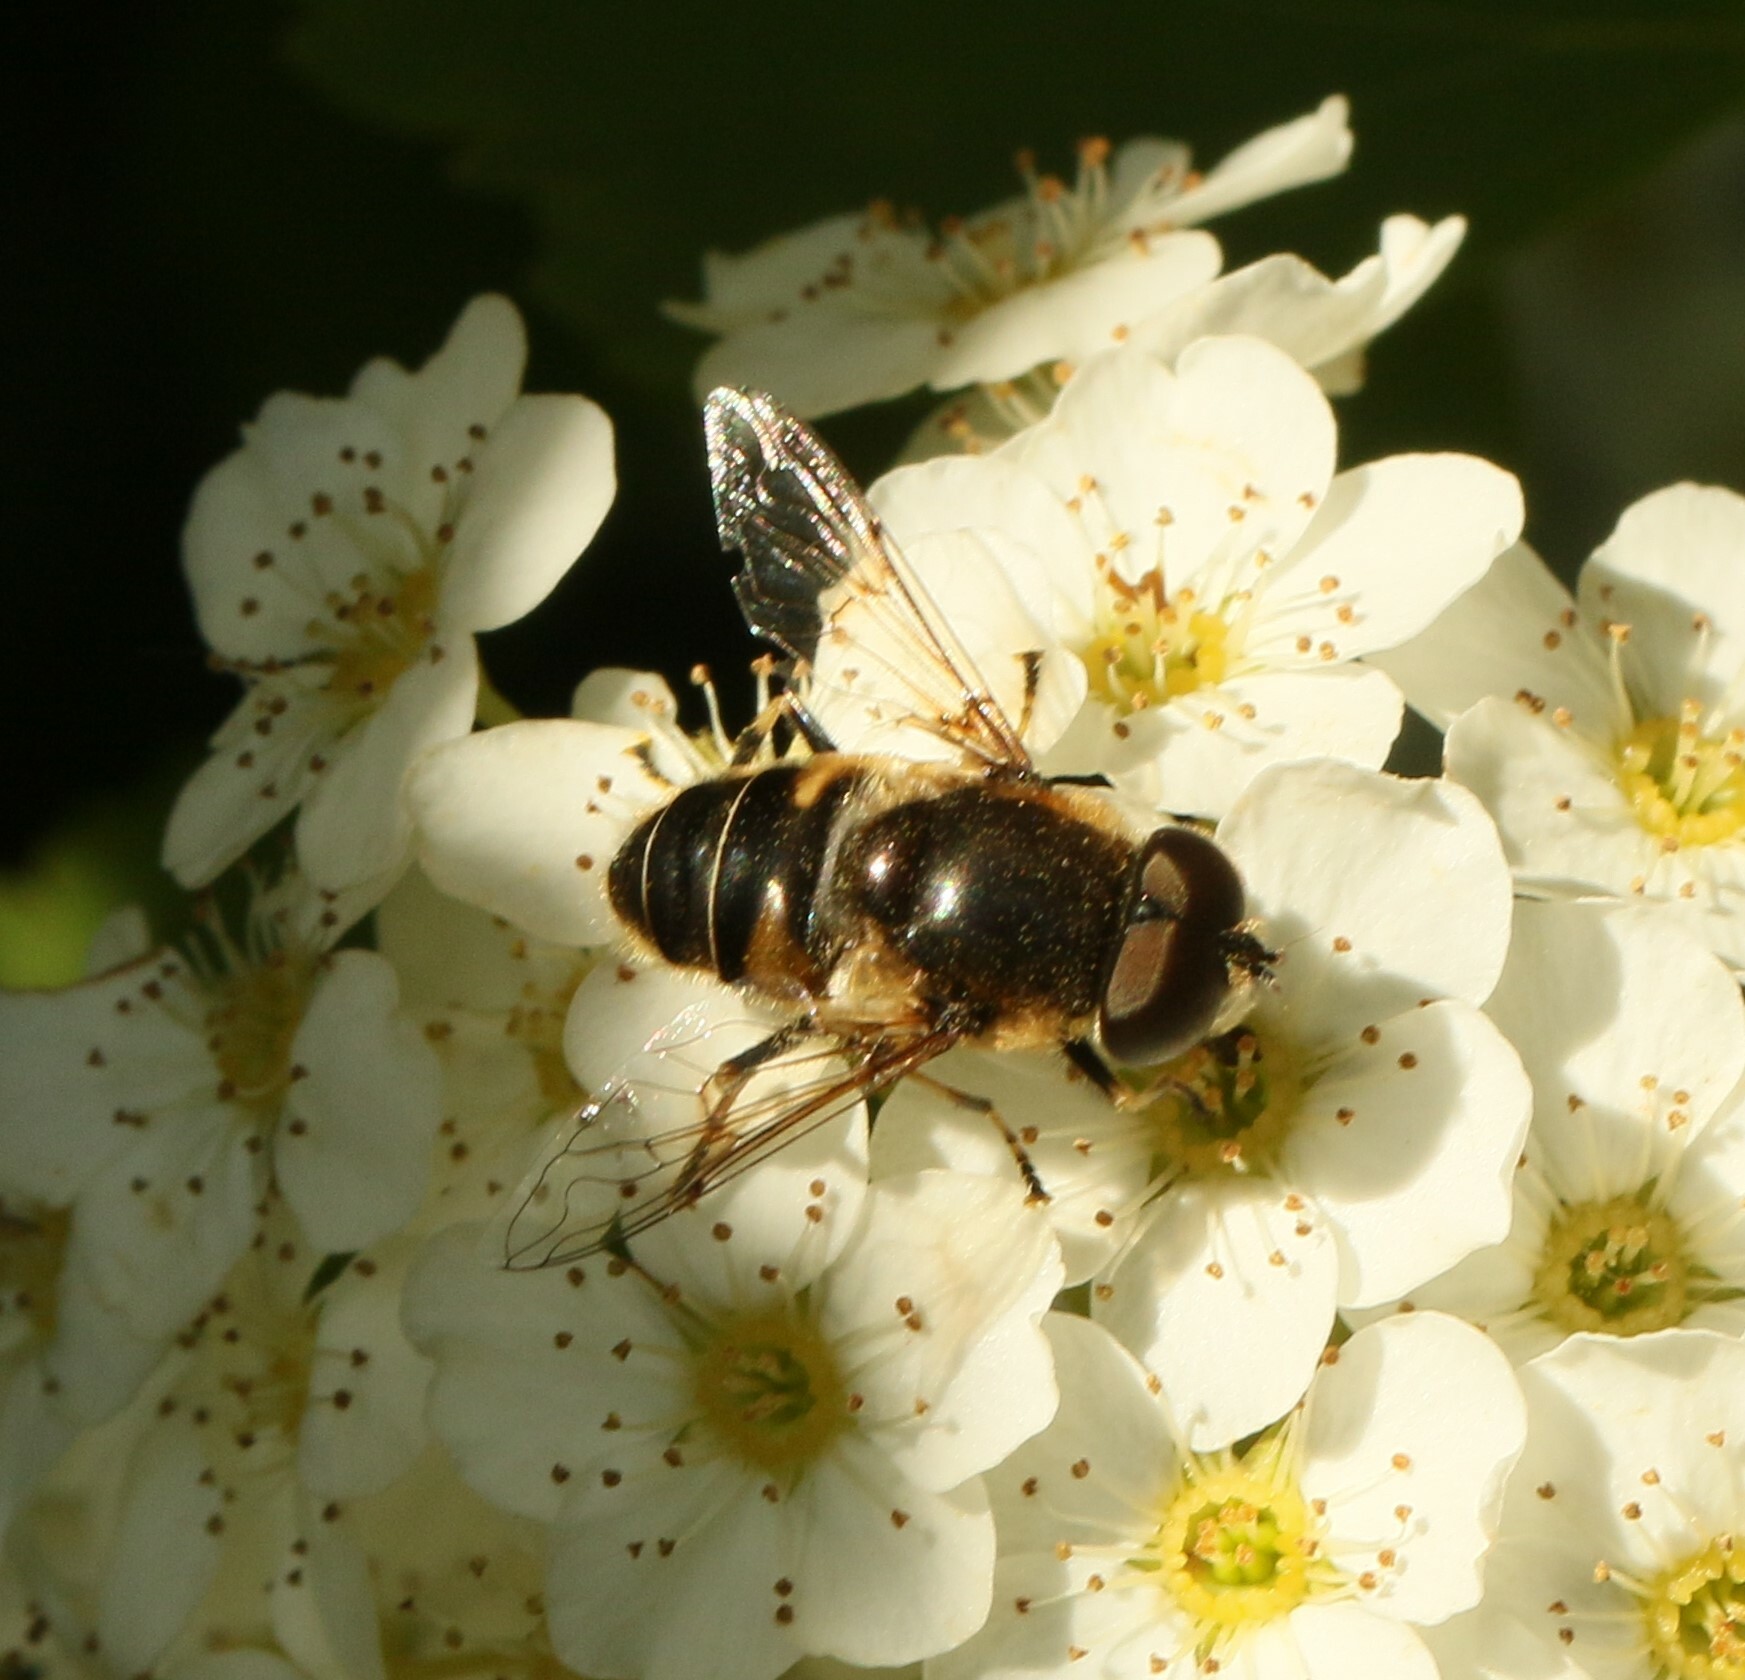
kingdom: Animalia
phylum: Arthropoda
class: Insecta
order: Diptera
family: Syrphidae
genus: Eristalis
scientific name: Eristalis nemorum
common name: Orange-spined drone fly
